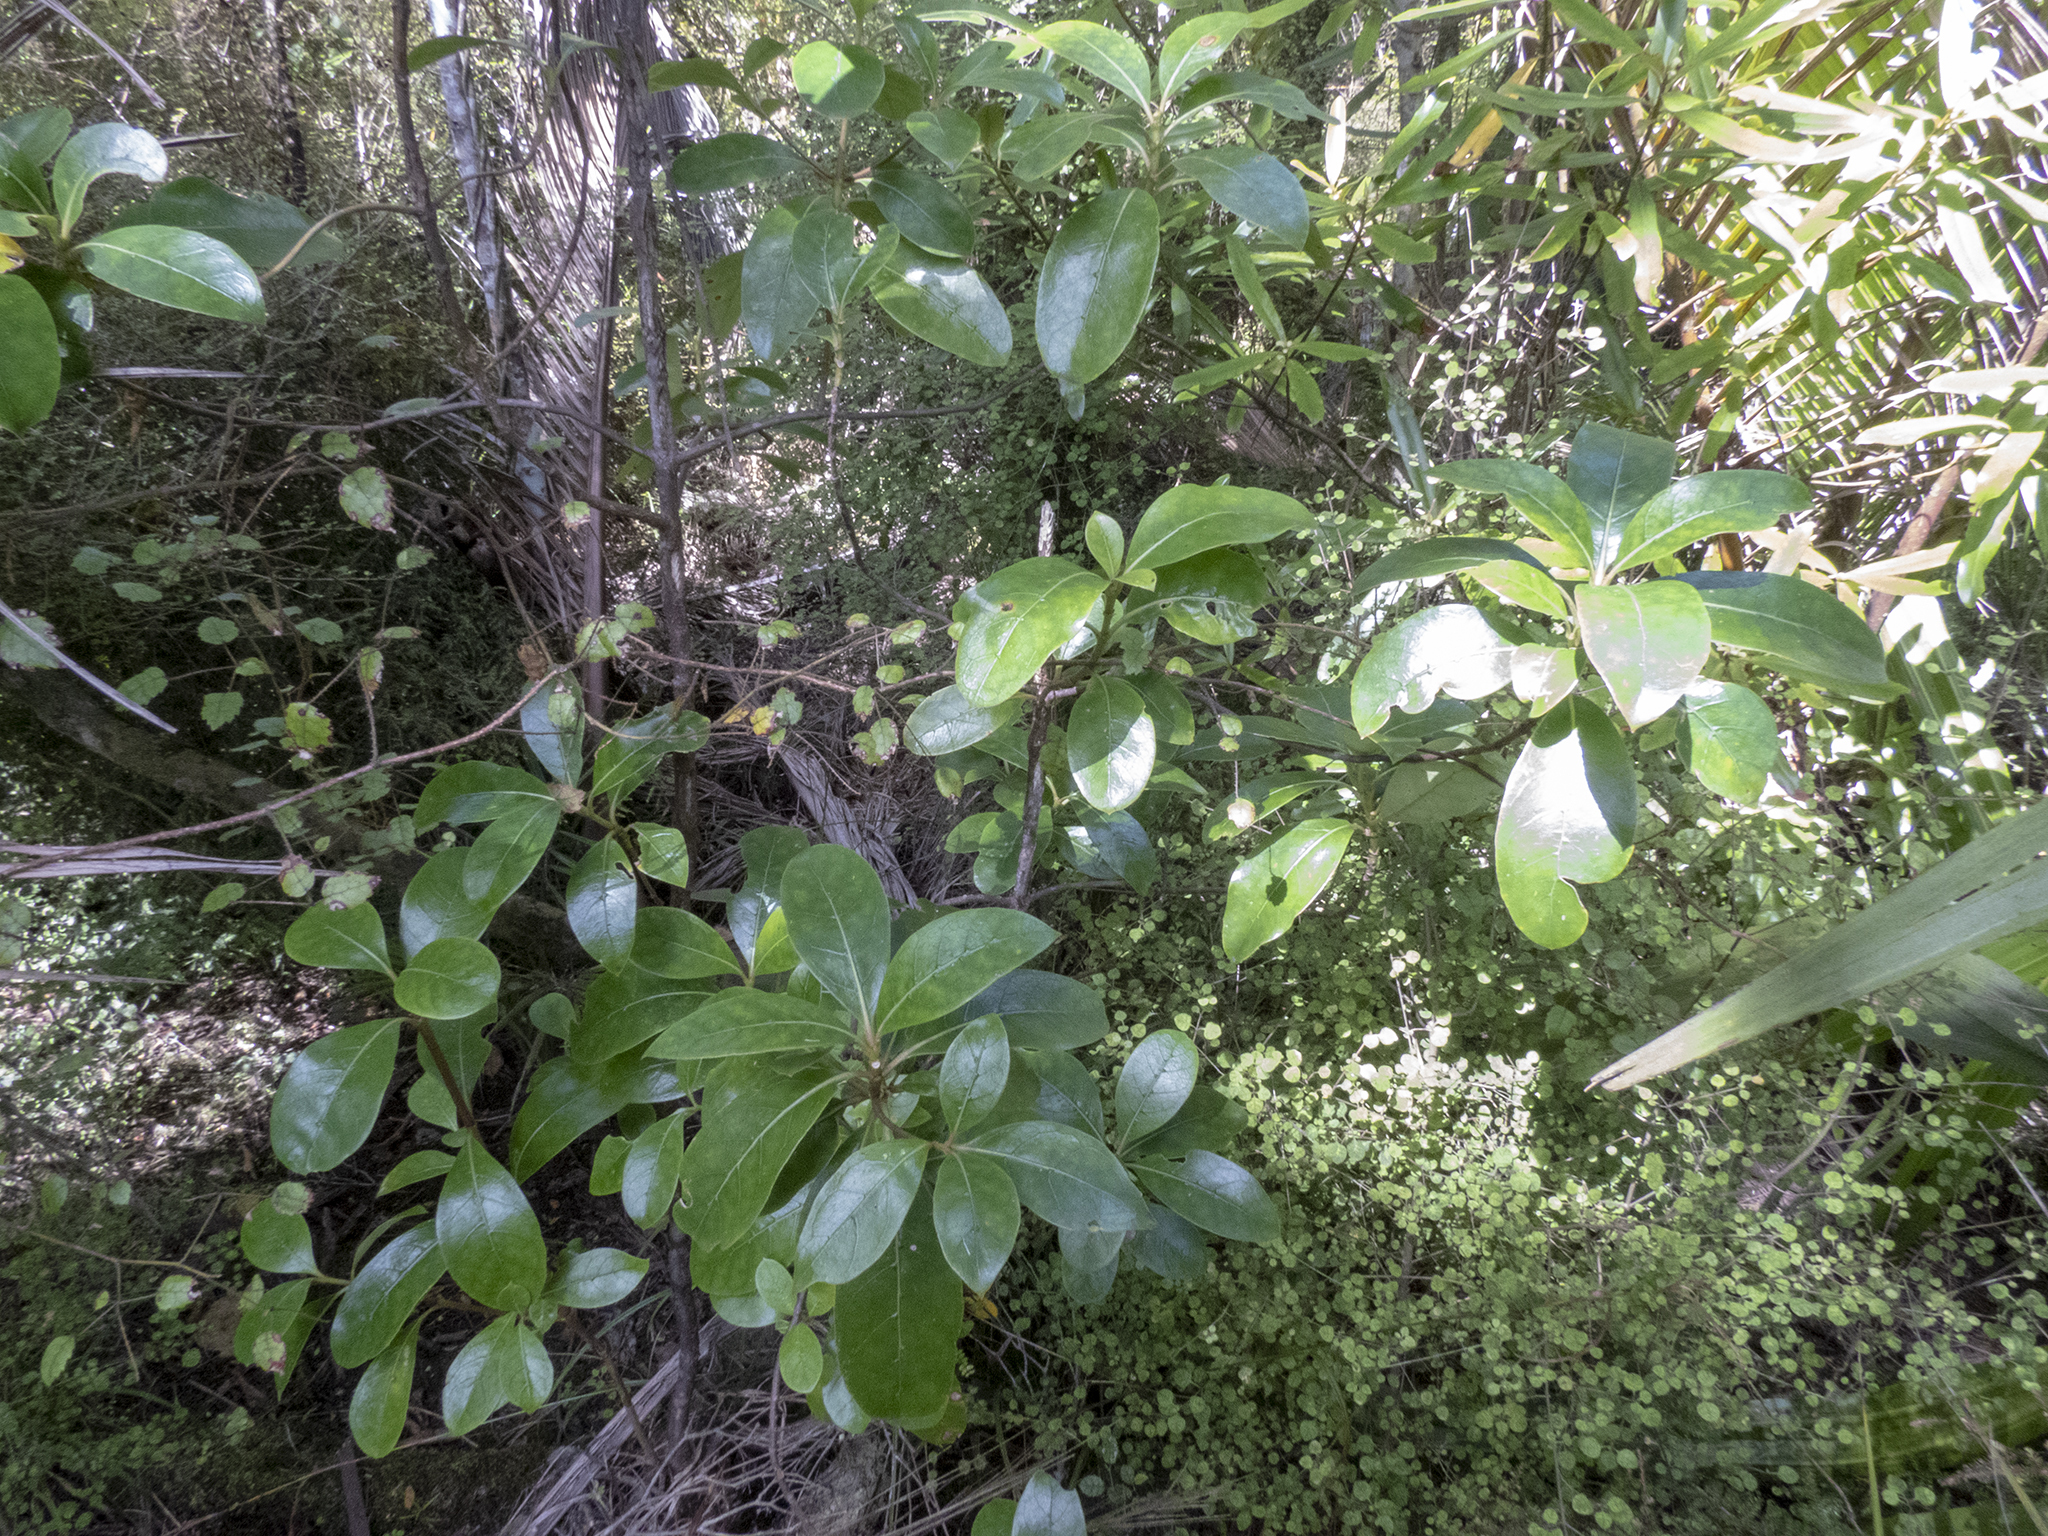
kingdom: Plantae
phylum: Tracheophyta
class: Magnoliopsida
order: Gentianales
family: Rubiaceae
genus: Coprosma
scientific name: Coprosma lucida
